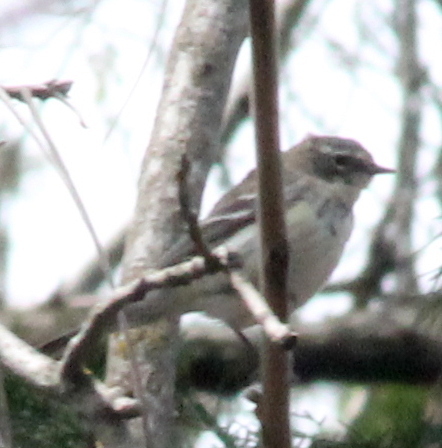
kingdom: Animalia
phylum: Chordata
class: Aves
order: Passeriformes
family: Parulidae
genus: Setophaga
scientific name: Setophaga coronata
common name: Myrtle warbler
